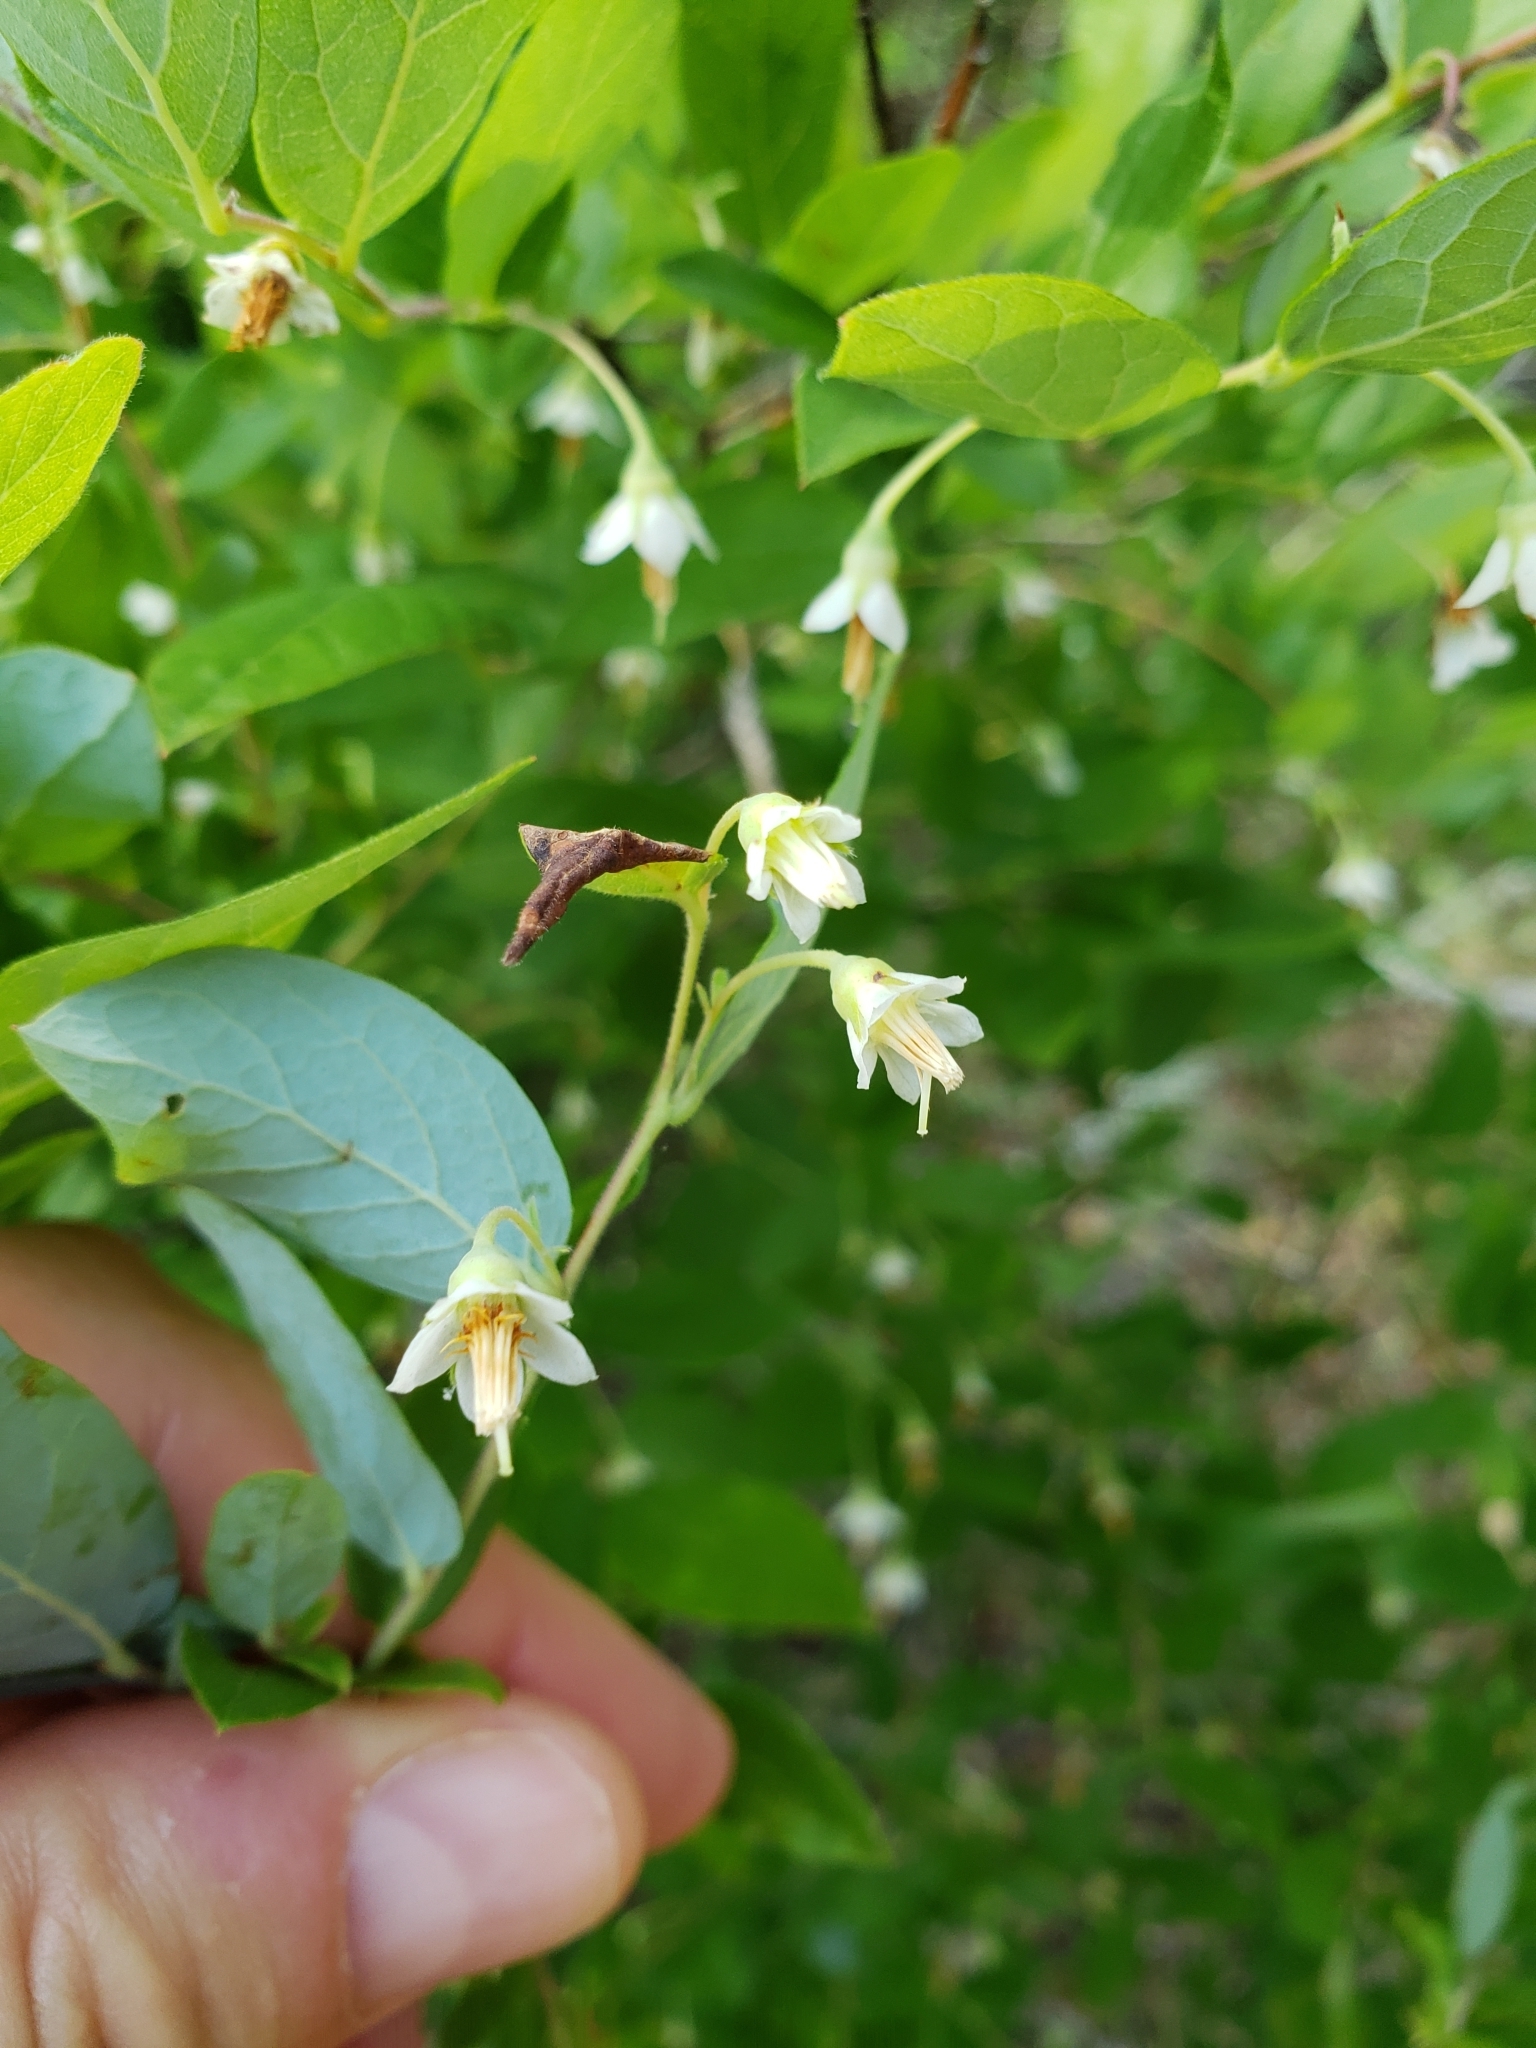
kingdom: Plantae
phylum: Tracheophyta
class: Magnoliopsida
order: Ericales
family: Ericaceae
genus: Vaccinium
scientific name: Vaccinium stamineum
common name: Deerberry
